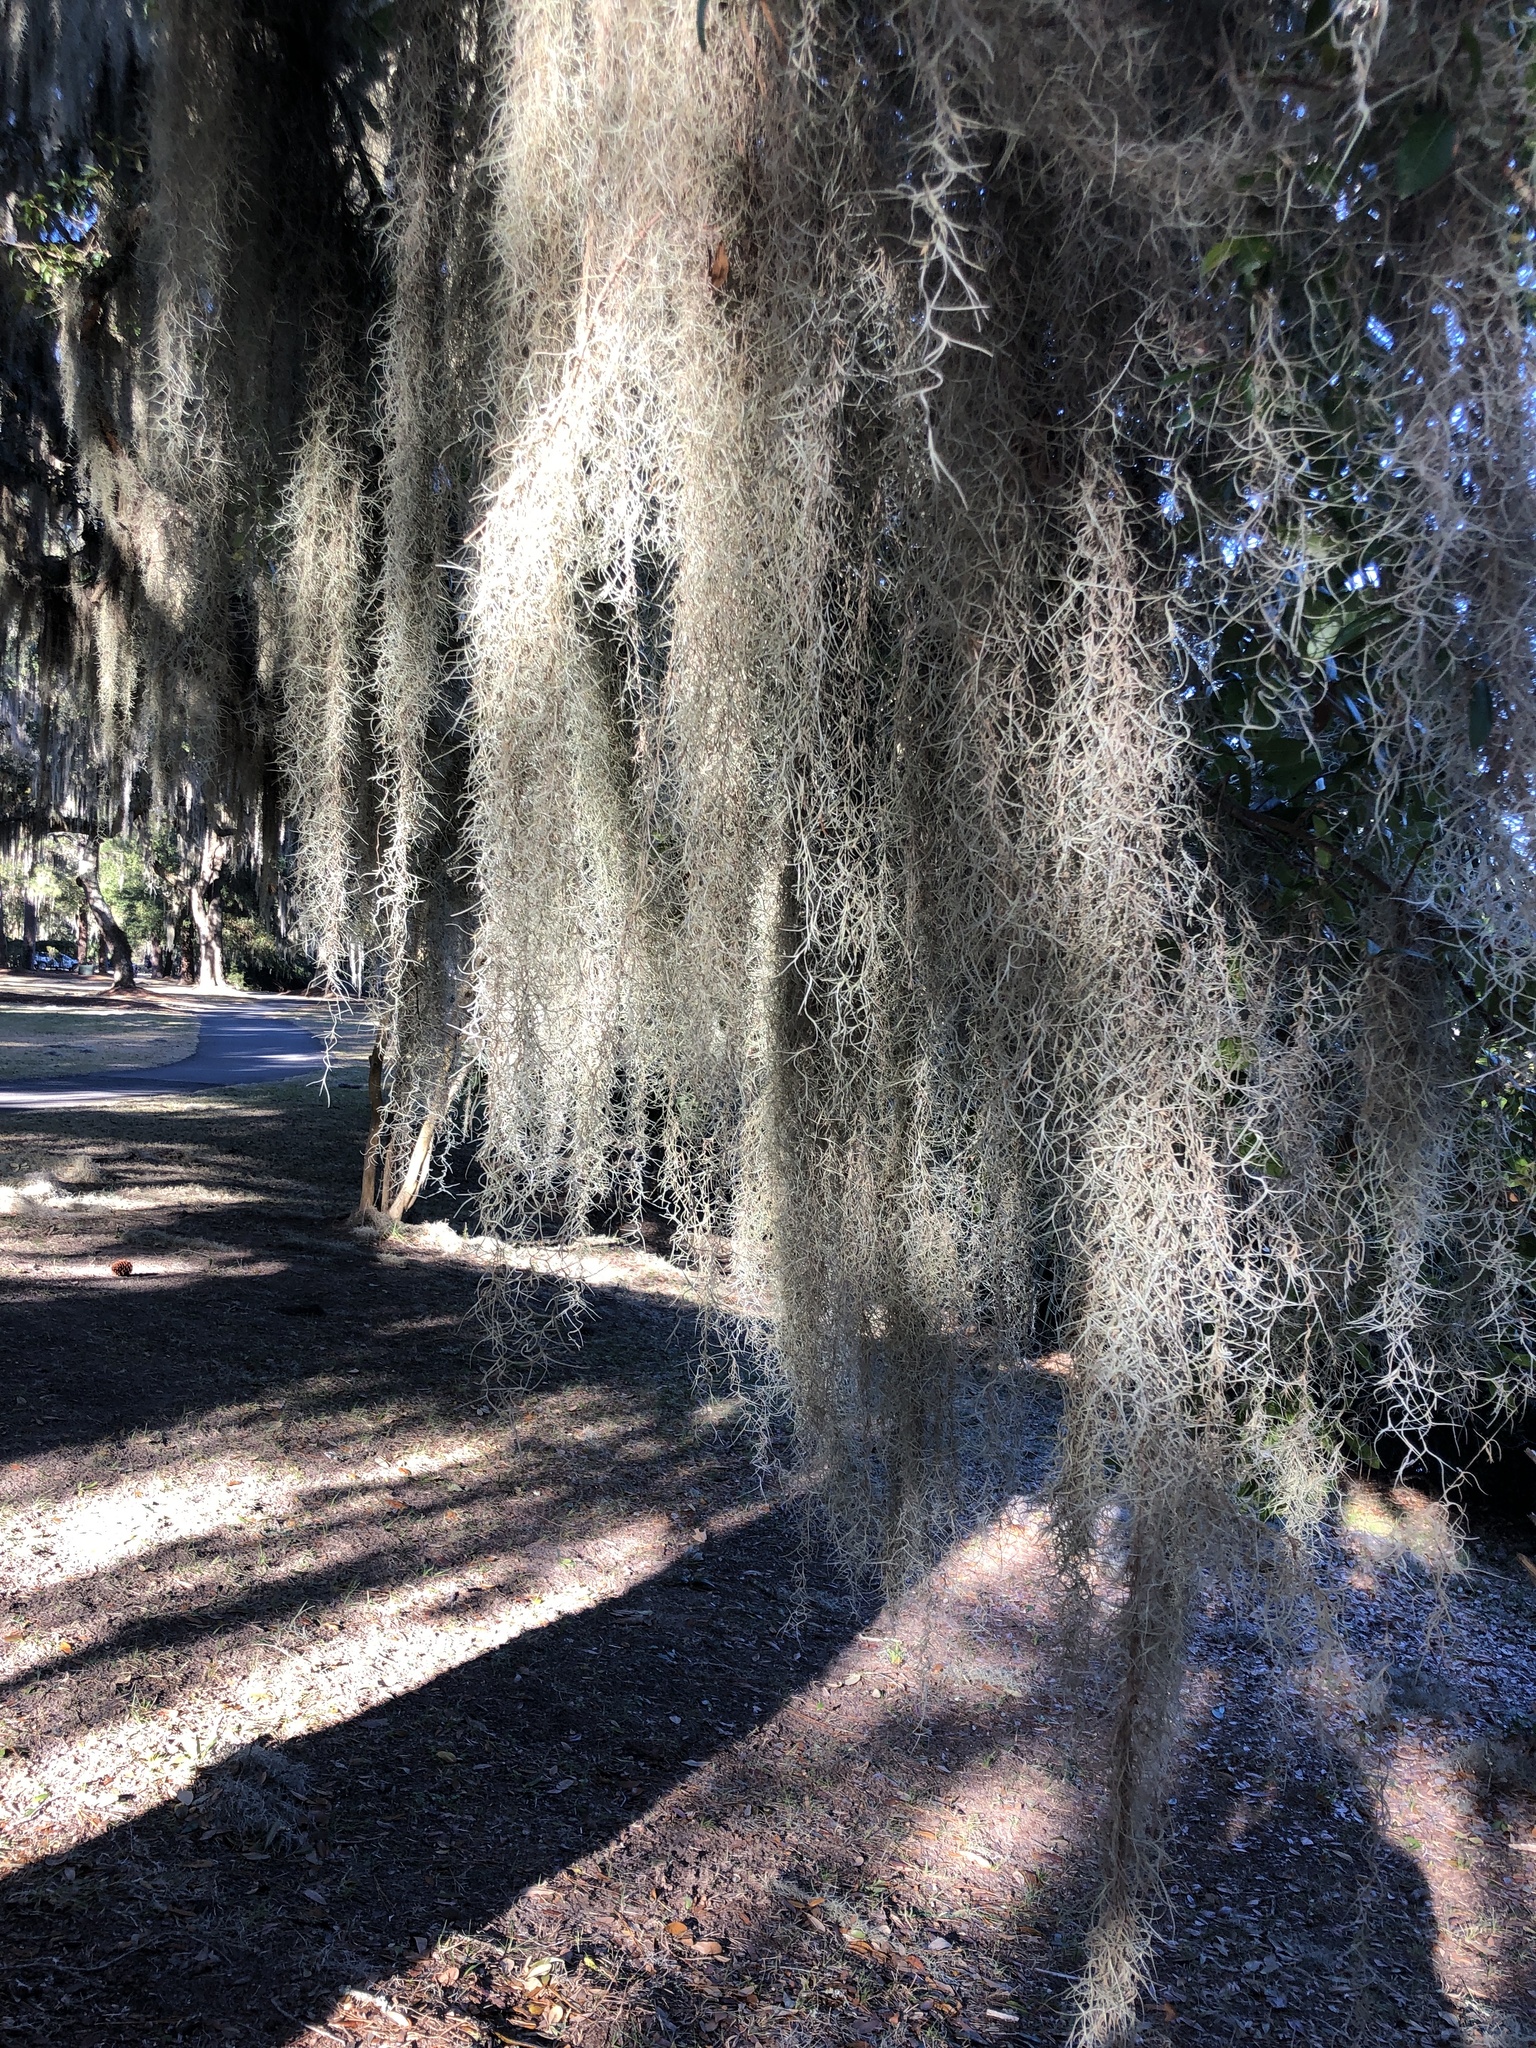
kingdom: Plantae
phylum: Tracheophyta
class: Liliopsida
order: Poales
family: Bromeliaceae
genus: Tillandsia
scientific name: Tillandsia usneoides
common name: Spanish moss
